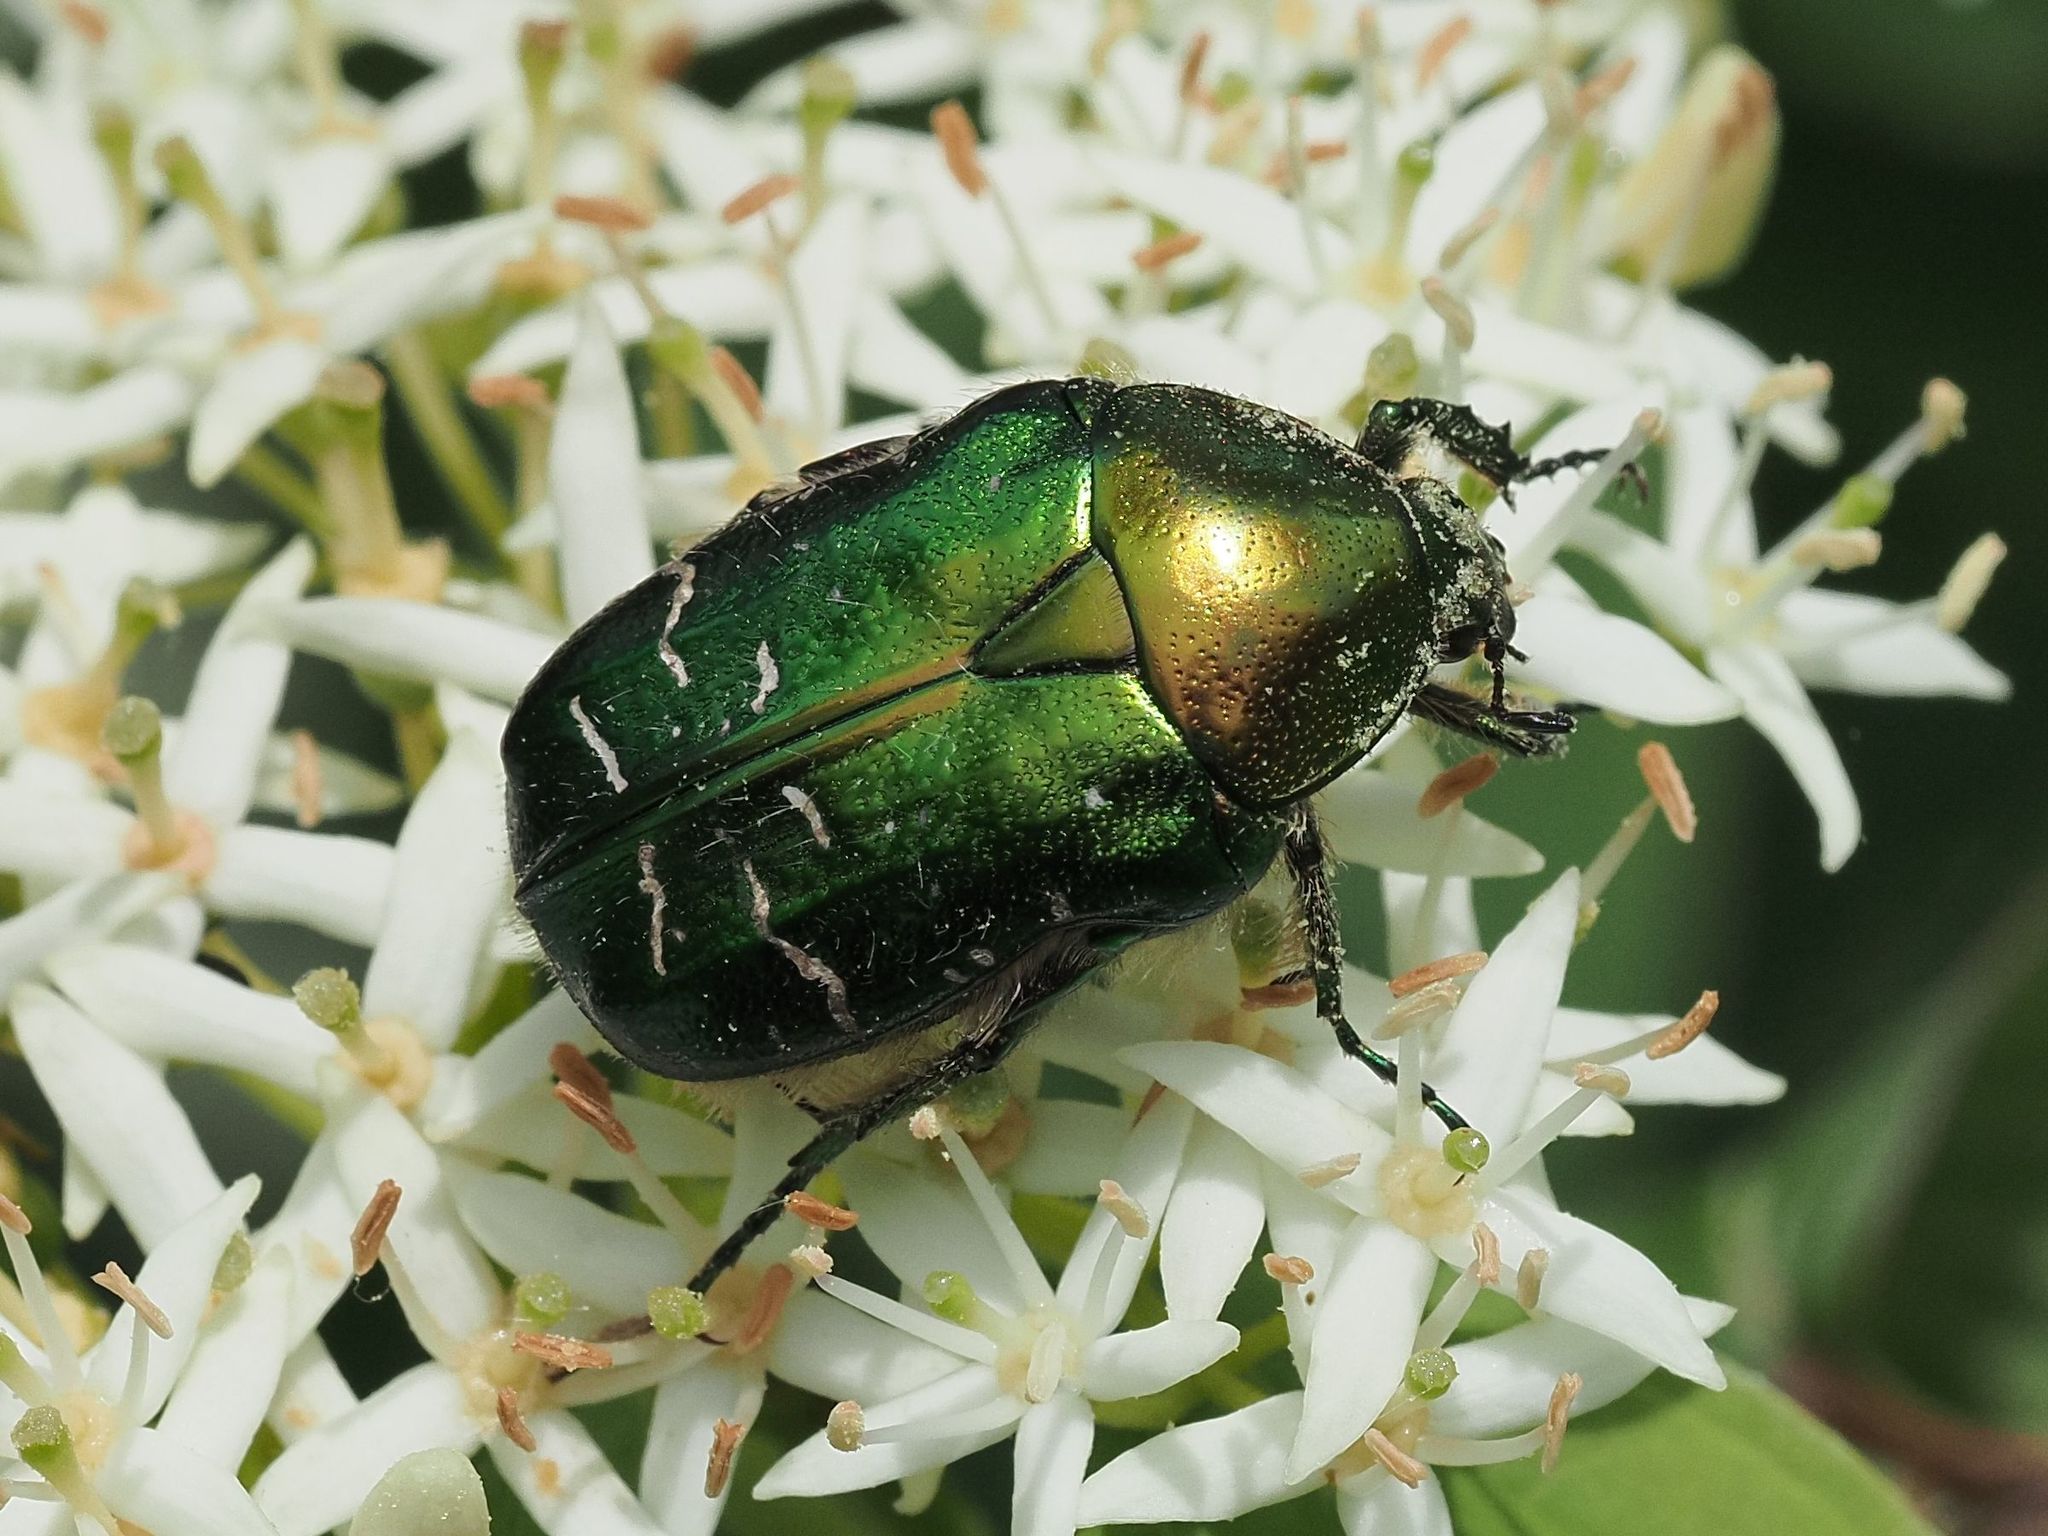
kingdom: Animalia
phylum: Arthropoda
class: Insecta
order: Coleoptera
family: Scarabaeidae
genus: Cetonia
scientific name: Cetonia aurata
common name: Rose chafer
